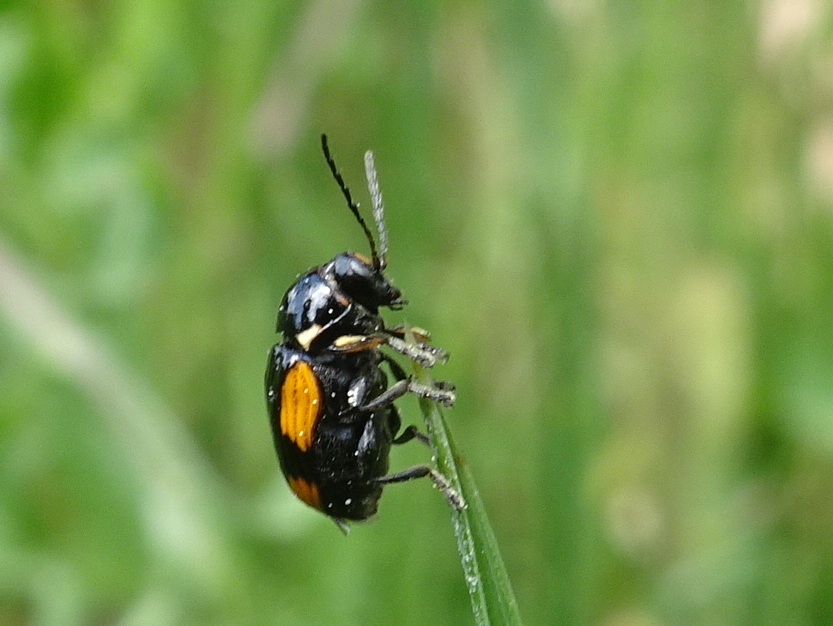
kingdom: Animalia
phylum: Arthropoda
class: Insecta
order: Coleoptera
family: Chrysomelidae
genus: Cryptocephalus
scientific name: Cryptocephalus moraei
